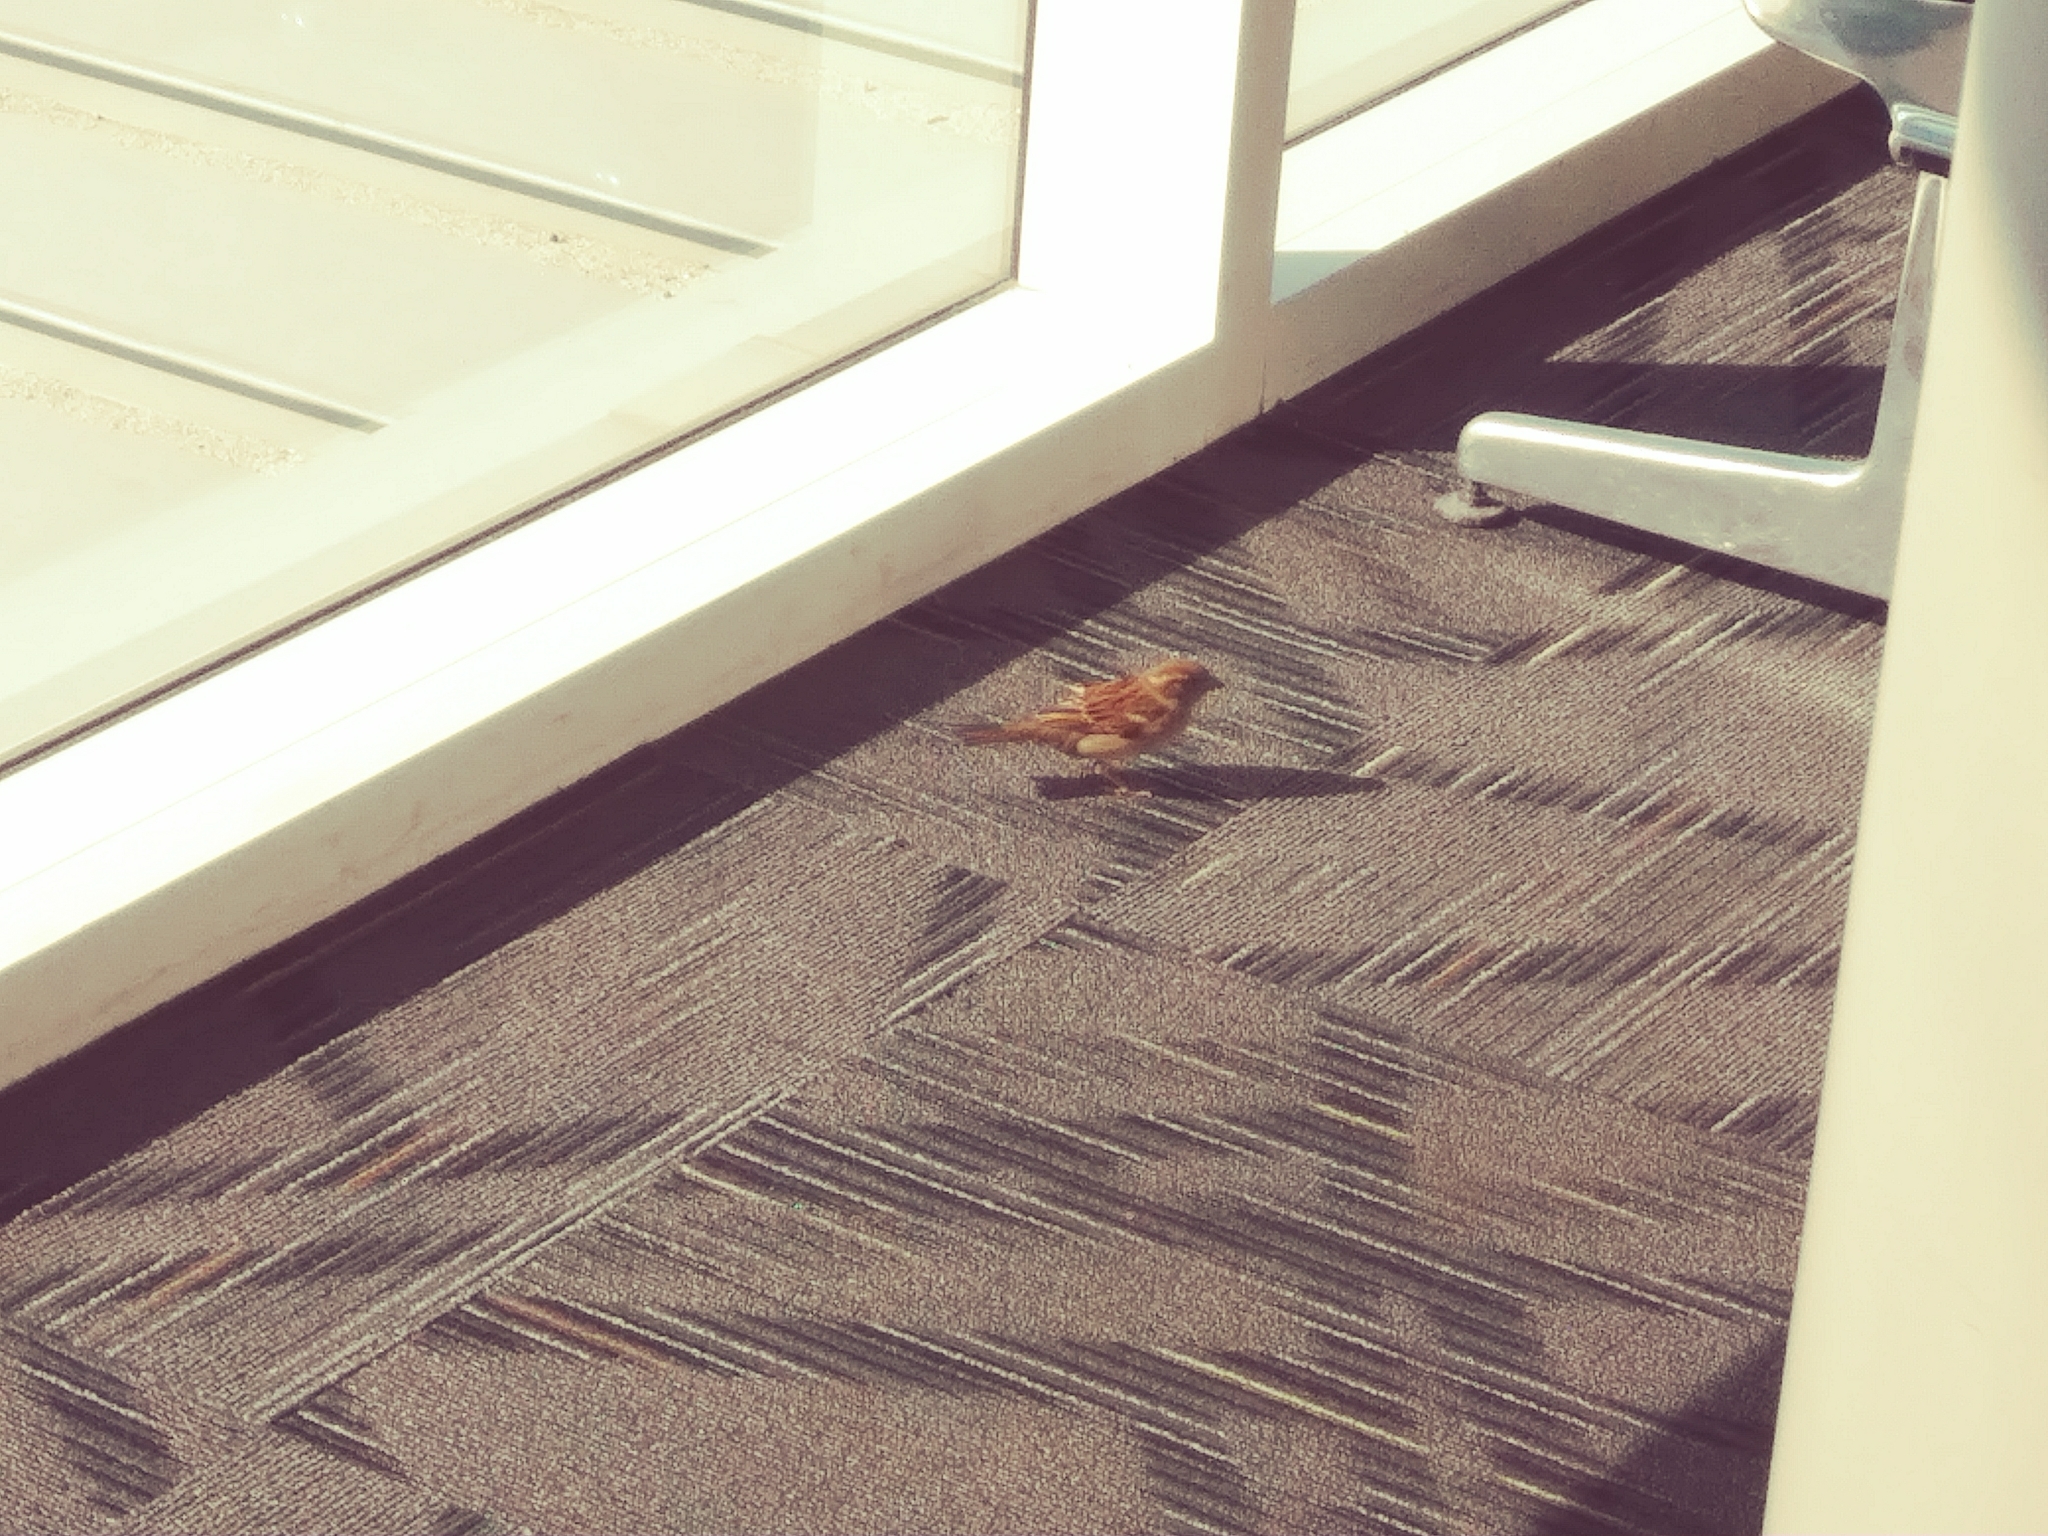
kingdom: Animalia
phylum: Chordata
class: Aves
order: Passeriformes
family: Passeridae
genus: Passer
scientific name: Passer domesticus
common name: House sparrow
